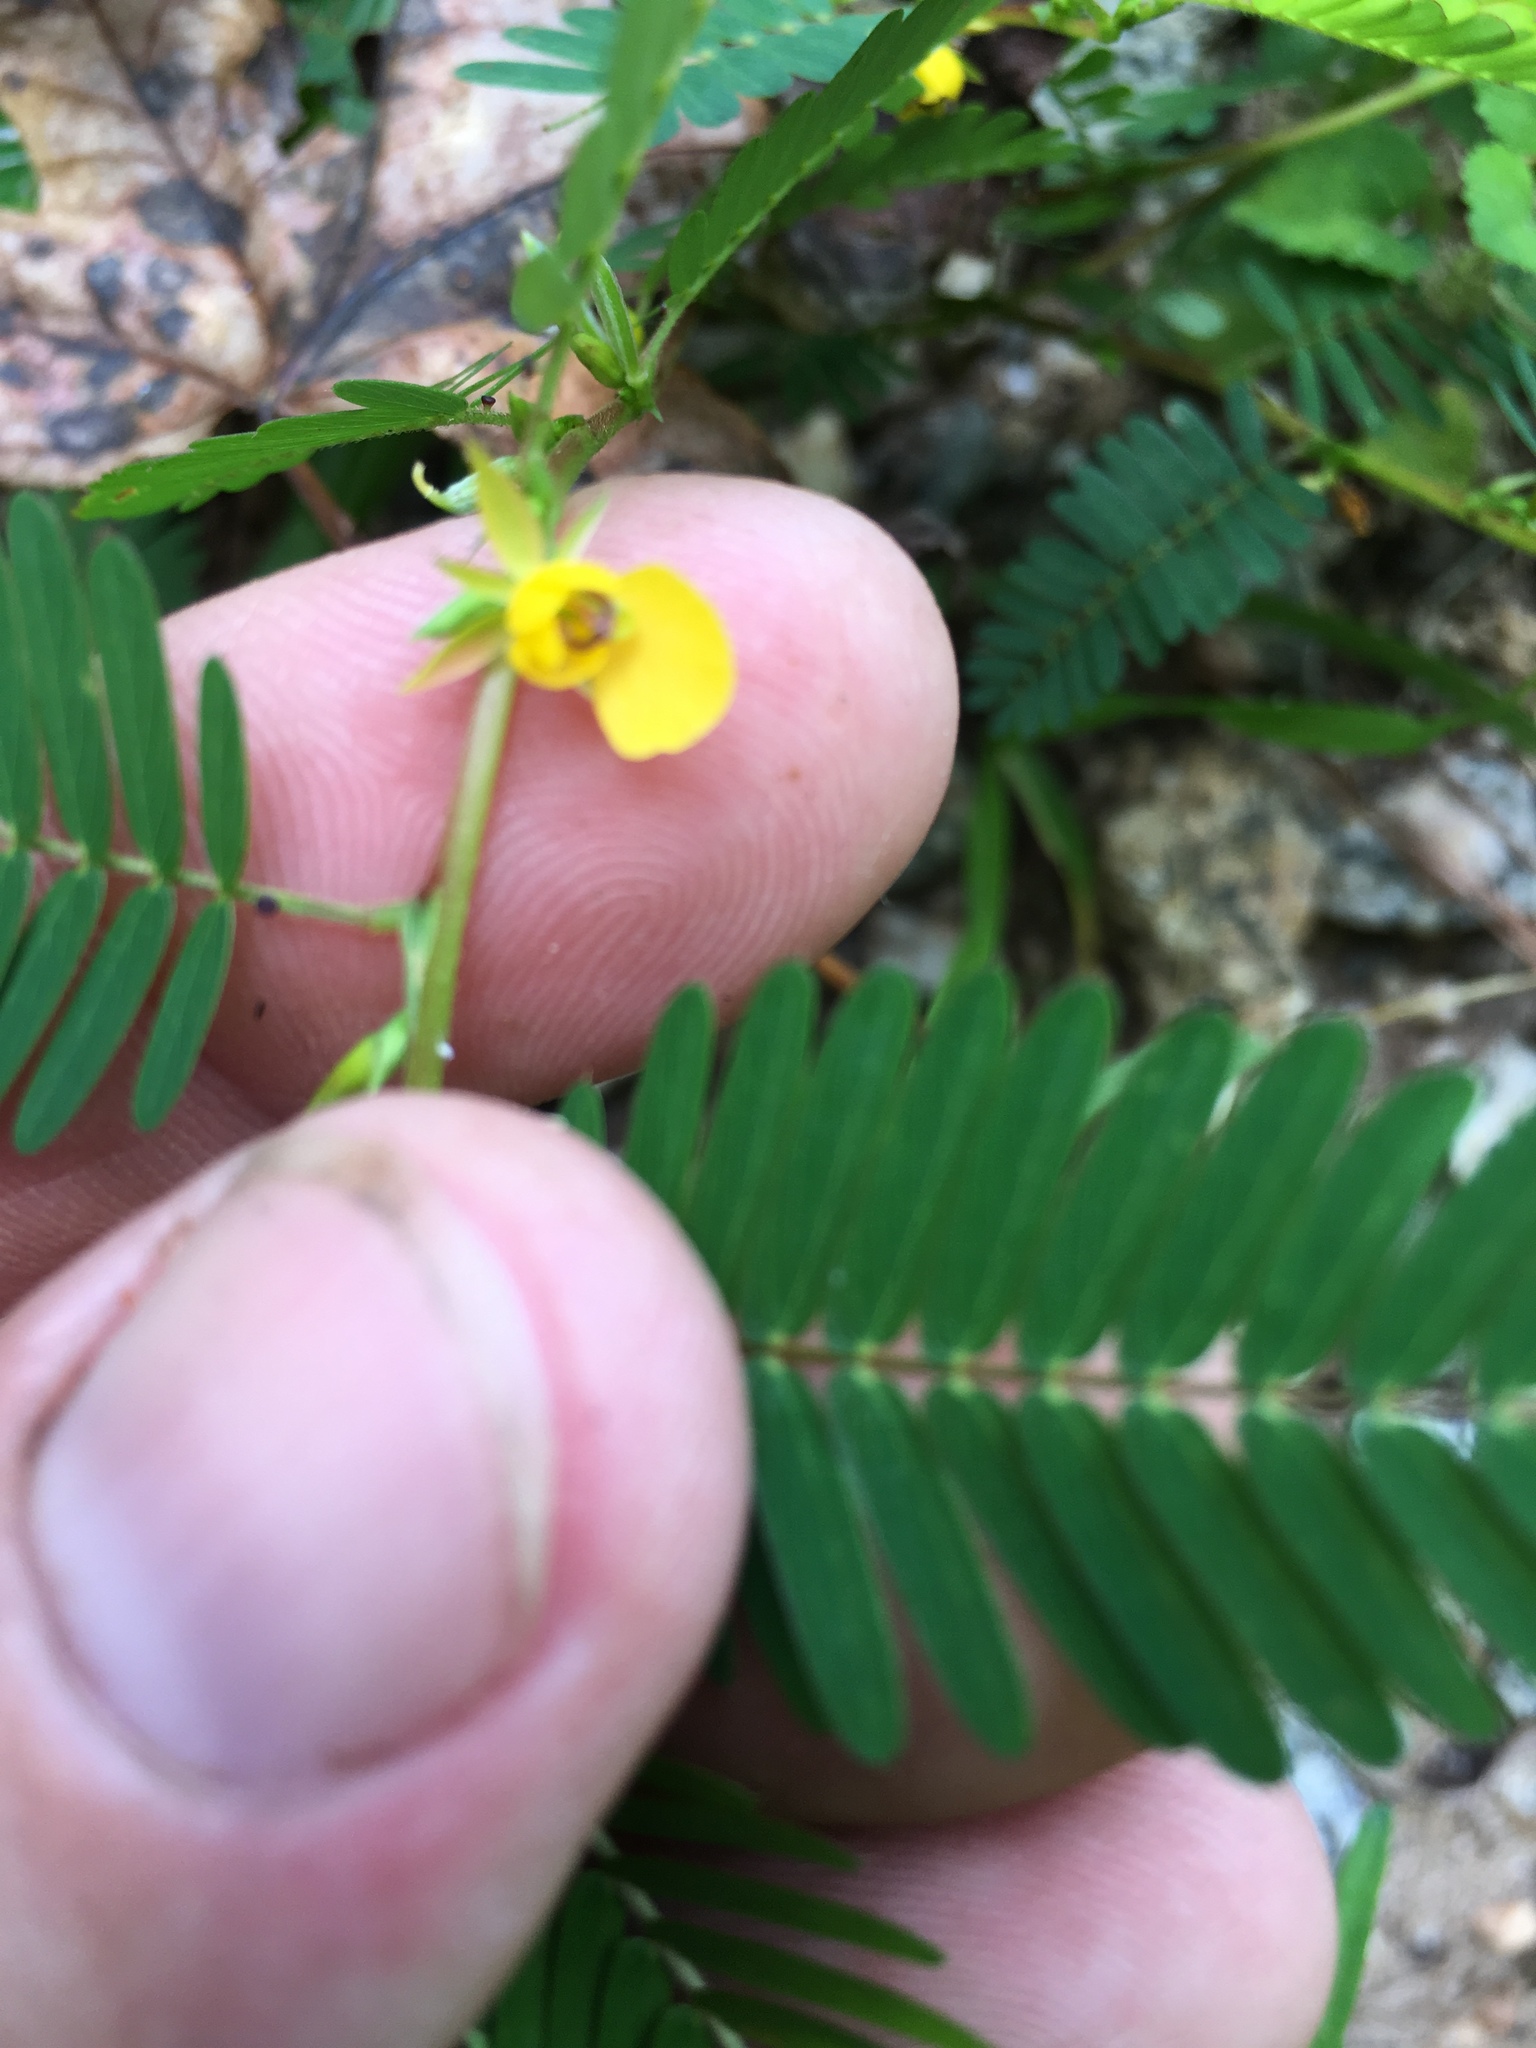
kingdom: Plantae
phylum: Tracheophyta
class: Magnoliopsida
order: Fabales
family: Fabaceae
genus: Chamaecrista
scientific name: Chamaecrista nictitans
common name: Sensitive cassia
